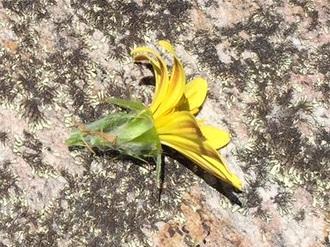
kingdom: Plantae
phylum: Tracheophyta
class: Magnoliopsida
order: Asterales
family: Asteraceae
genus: Cullumia
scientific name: Cullumia aculeata
